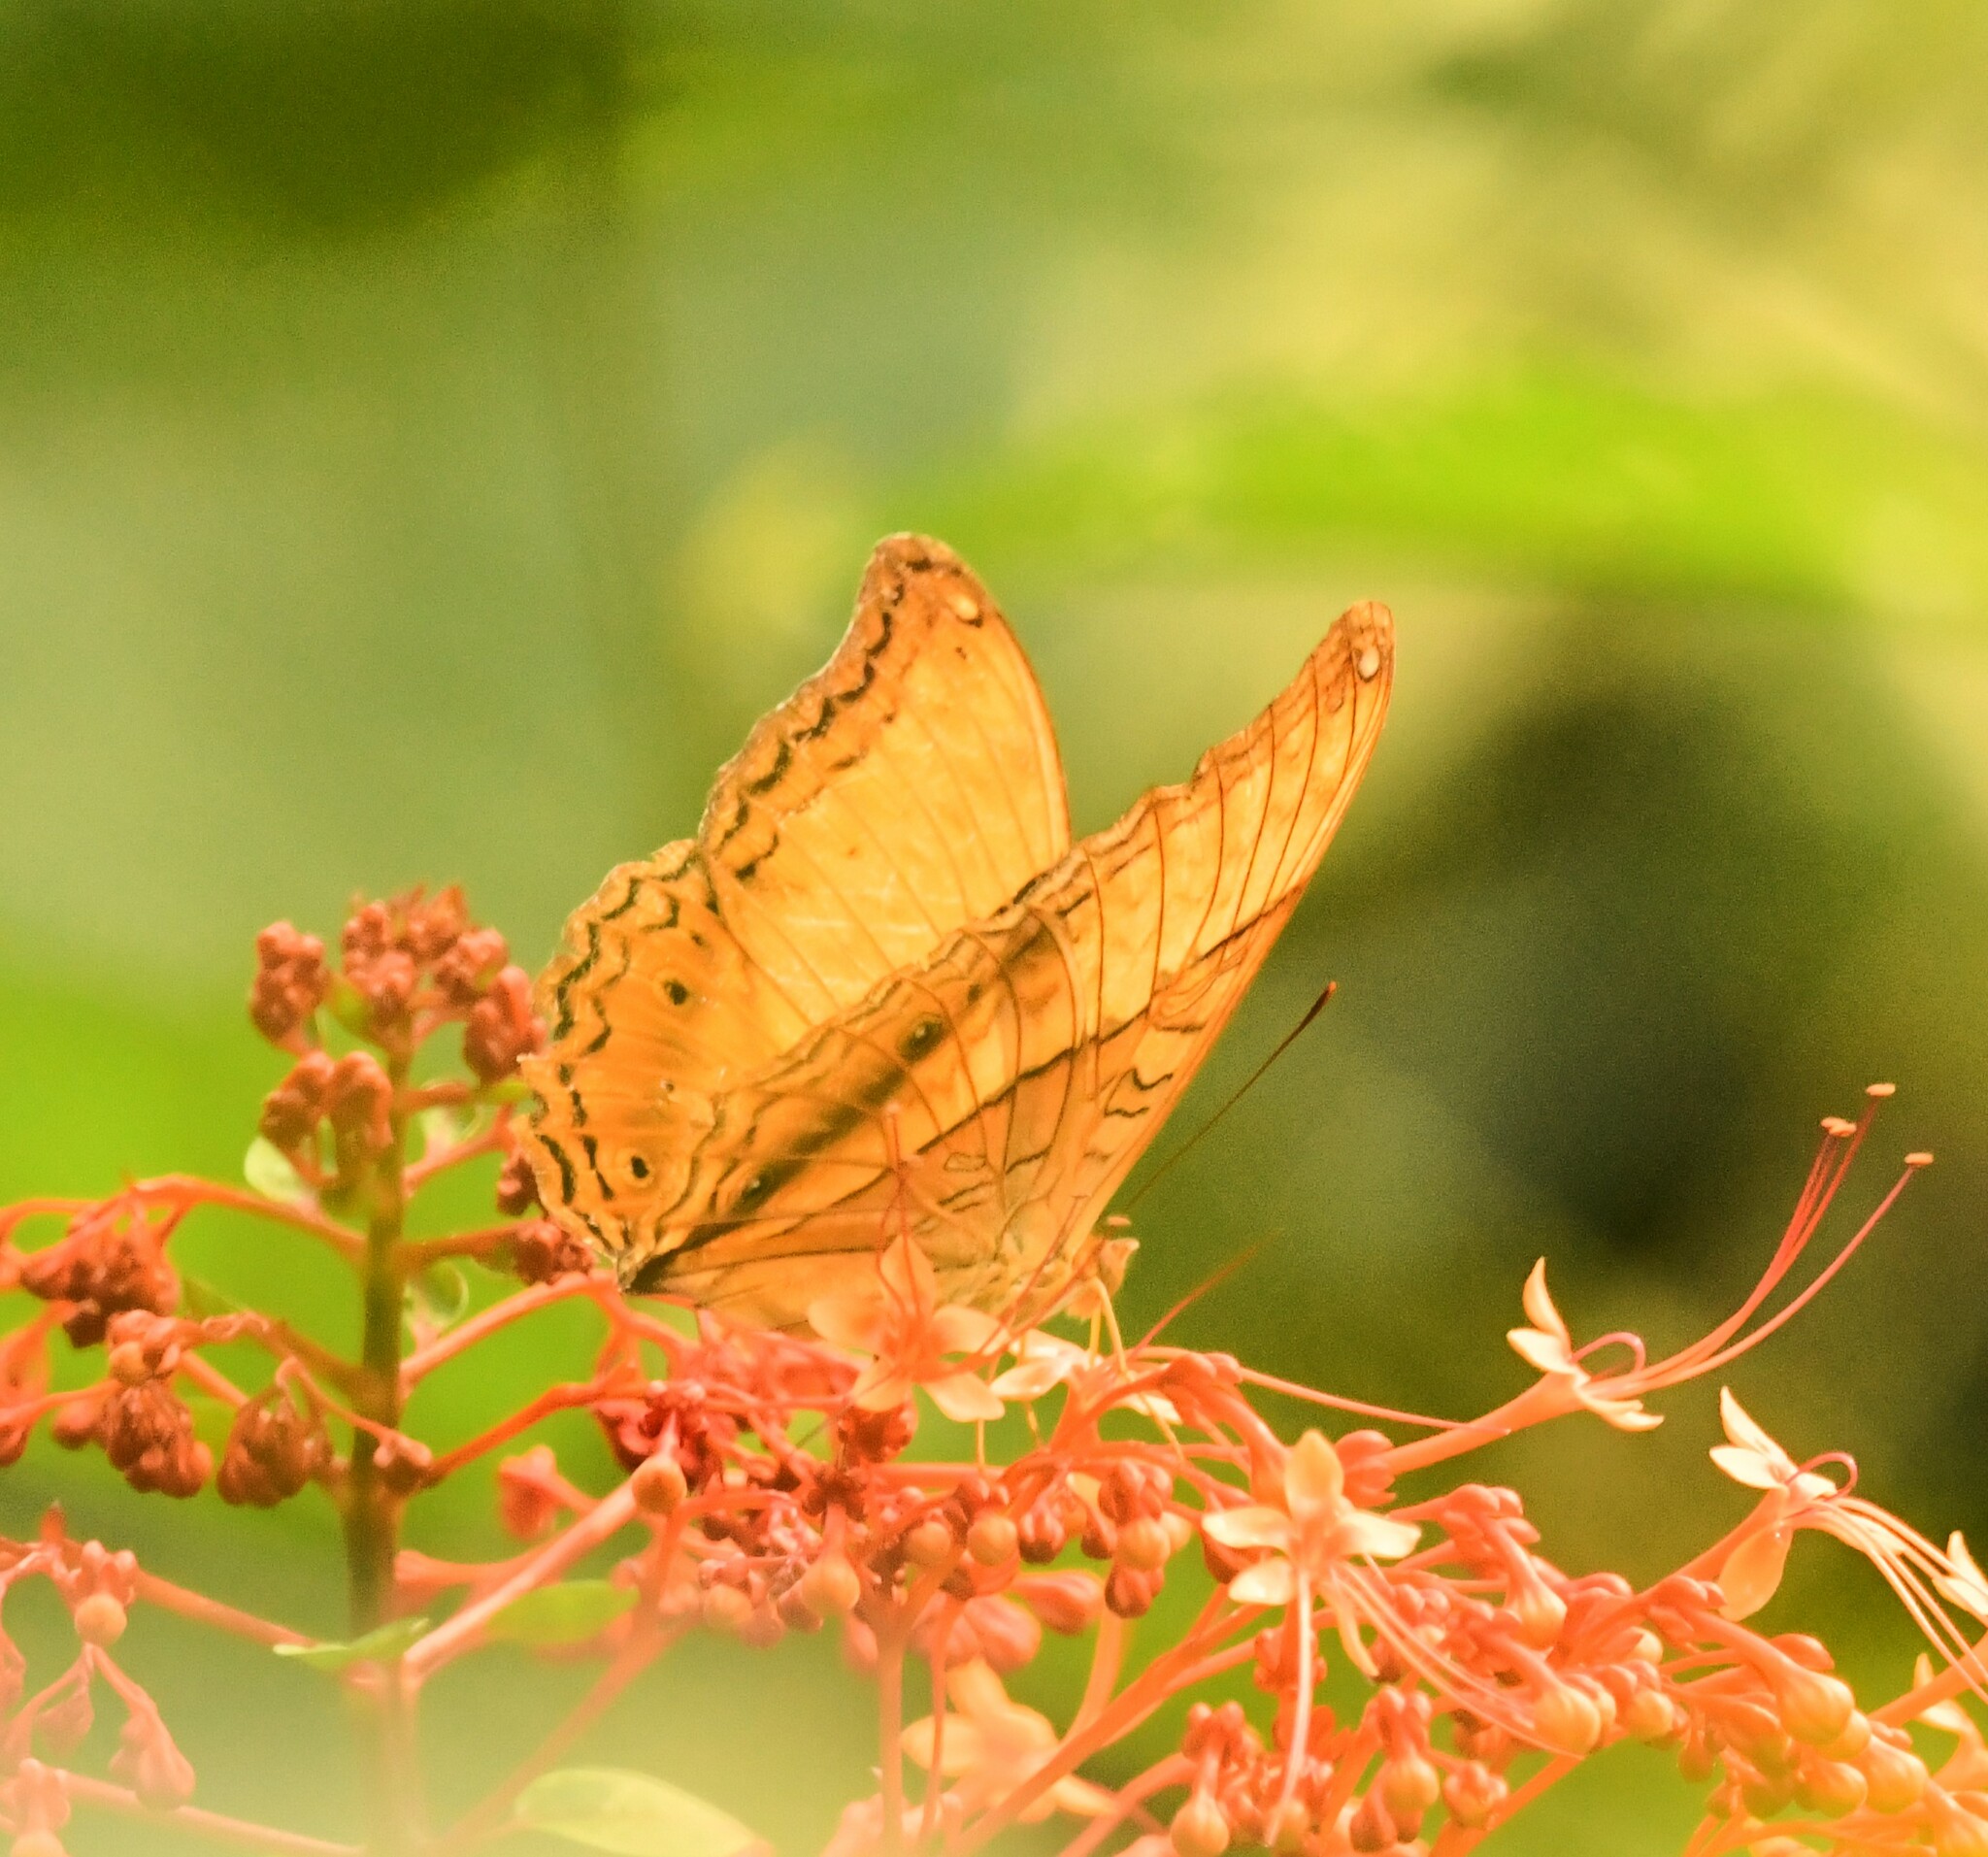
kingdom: Animalia
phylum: Arthropoda
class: Insecta
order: Lepidoptera
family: Nymphalidae
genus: Vindula
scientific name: Vindula erota
